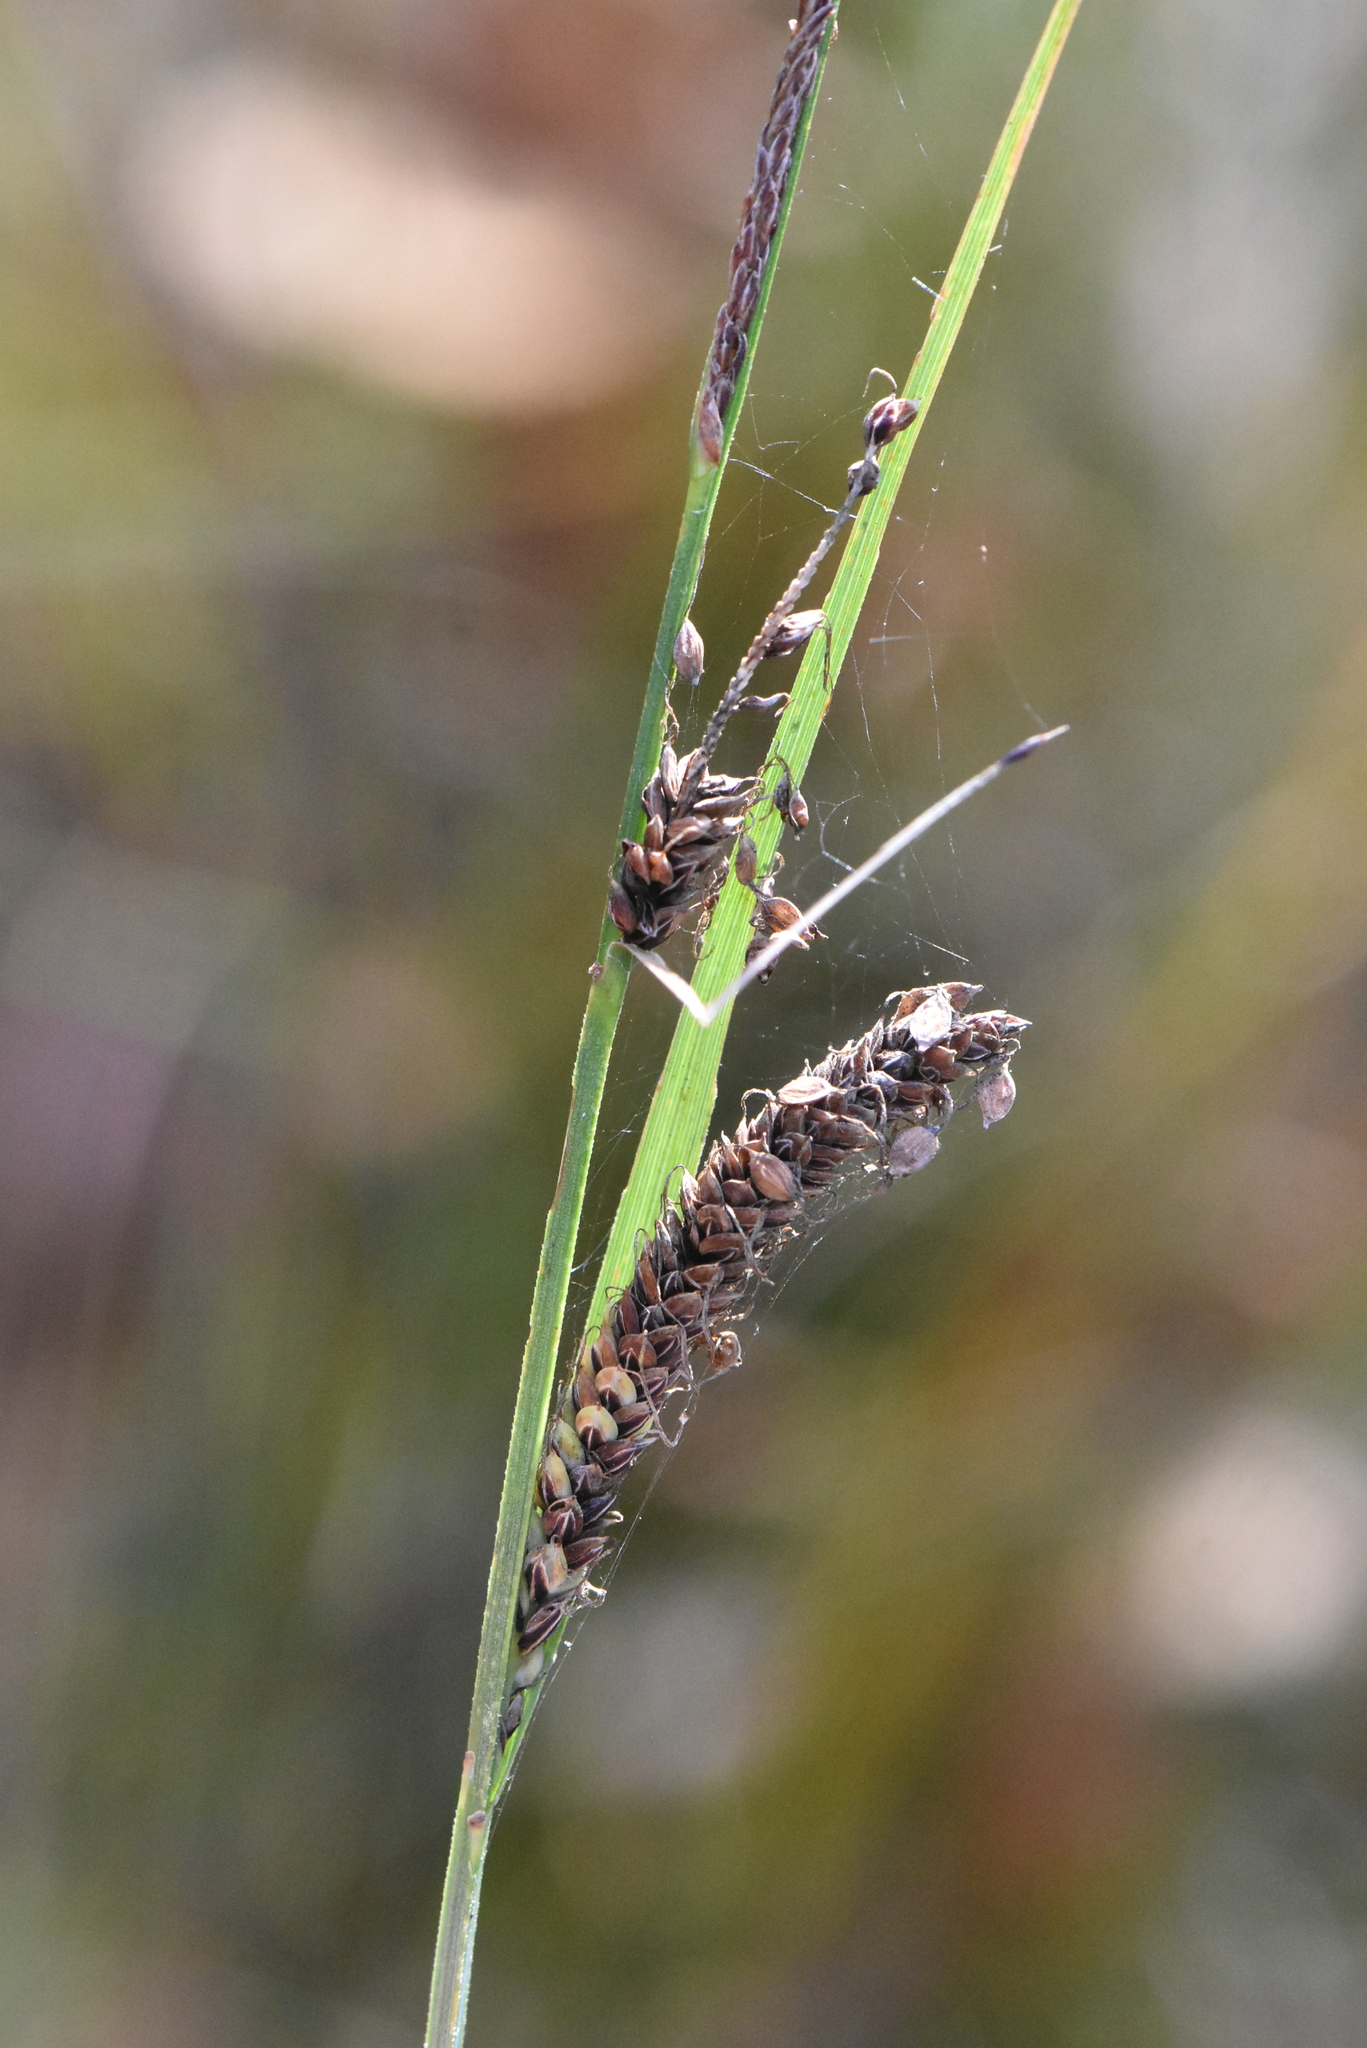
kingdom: Plantae
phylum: Tracheophyta
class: Liliopsida
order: Poales
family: Cyperaceae
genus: Carex
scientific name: Carex nigra
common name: Common sedge
